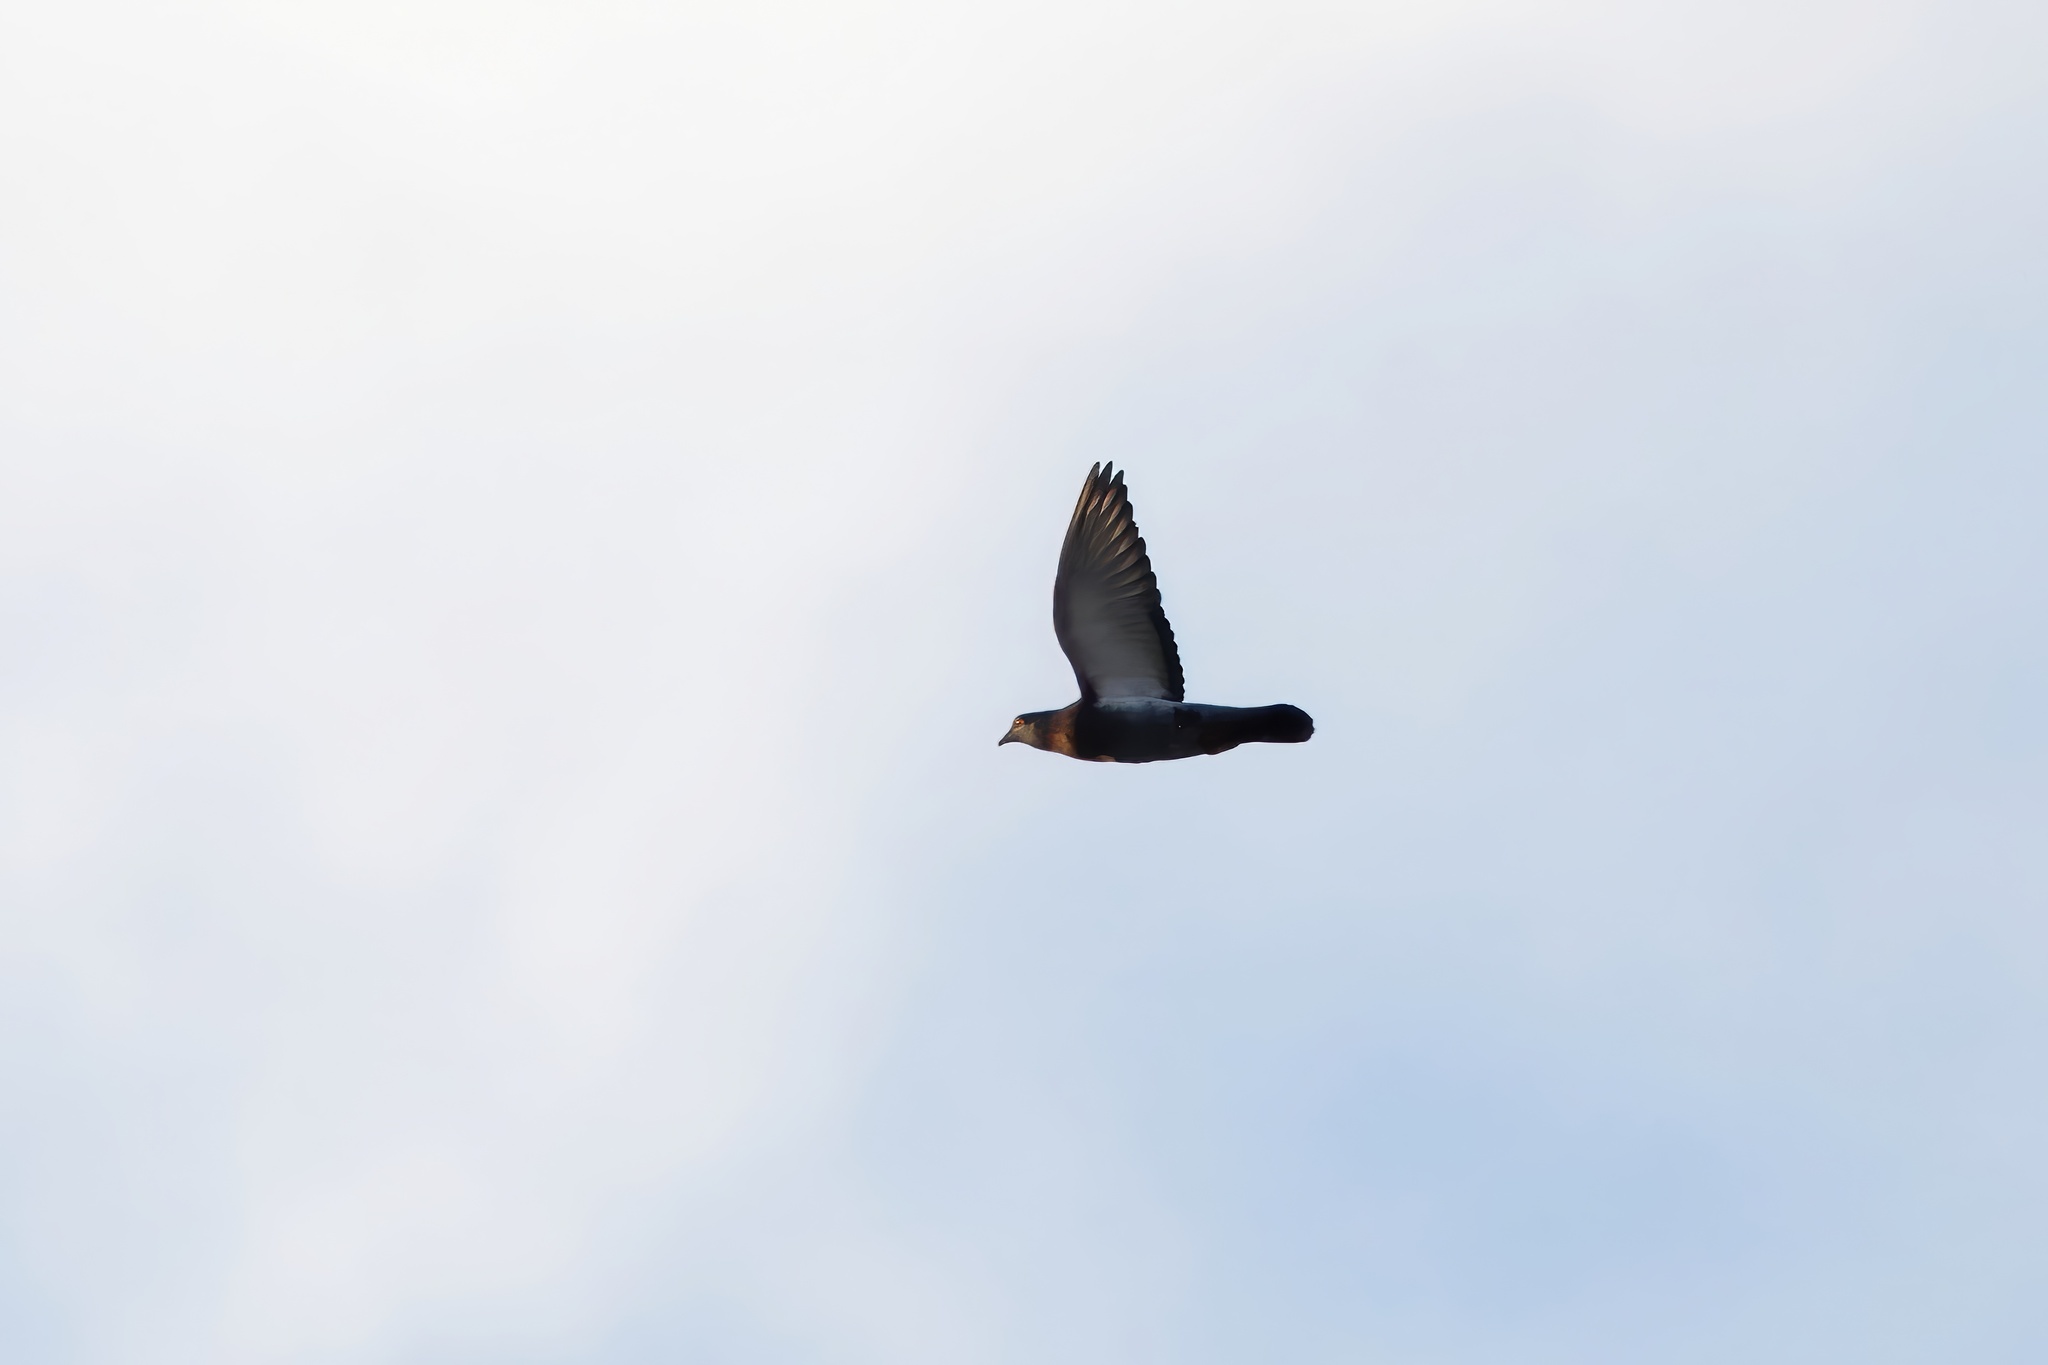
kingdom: Animalia
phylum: Chordata
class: Aves
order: Columbiformes
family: Columbidae
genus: Columba
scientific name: Columba livia
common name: Rock pigeon
